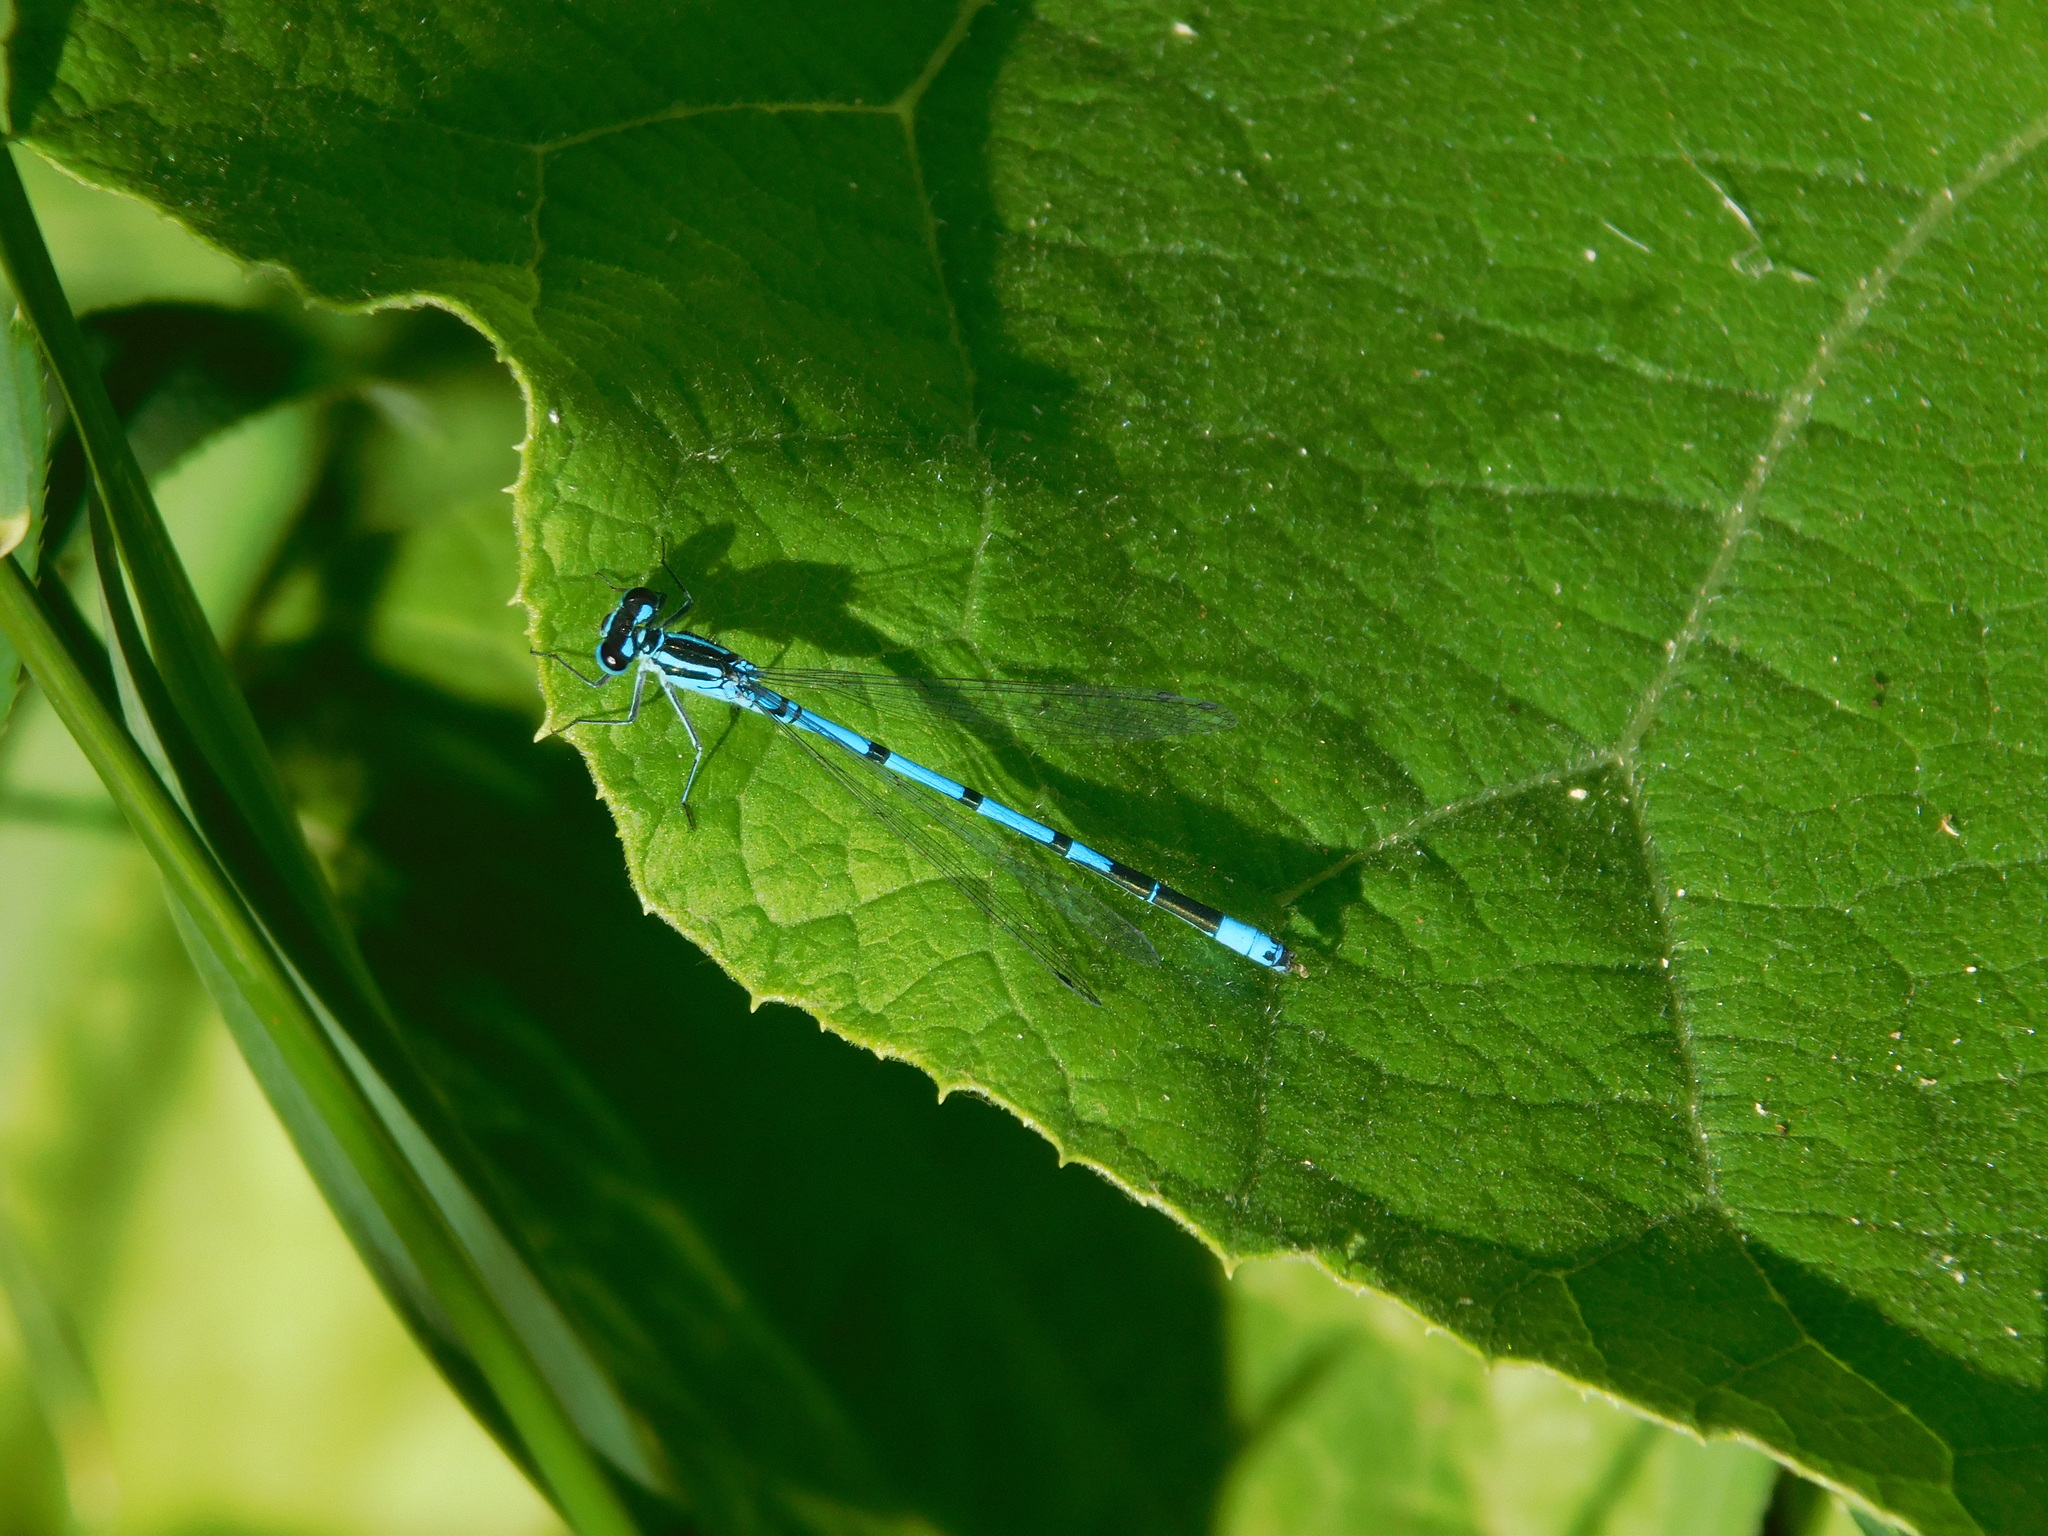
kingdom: Animalia
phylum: Arthropoda
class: Insecta
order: Odonata
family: Coenagrionidae
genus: Coenagrion
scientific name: Coenagrion puella
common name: Azure damselfly
